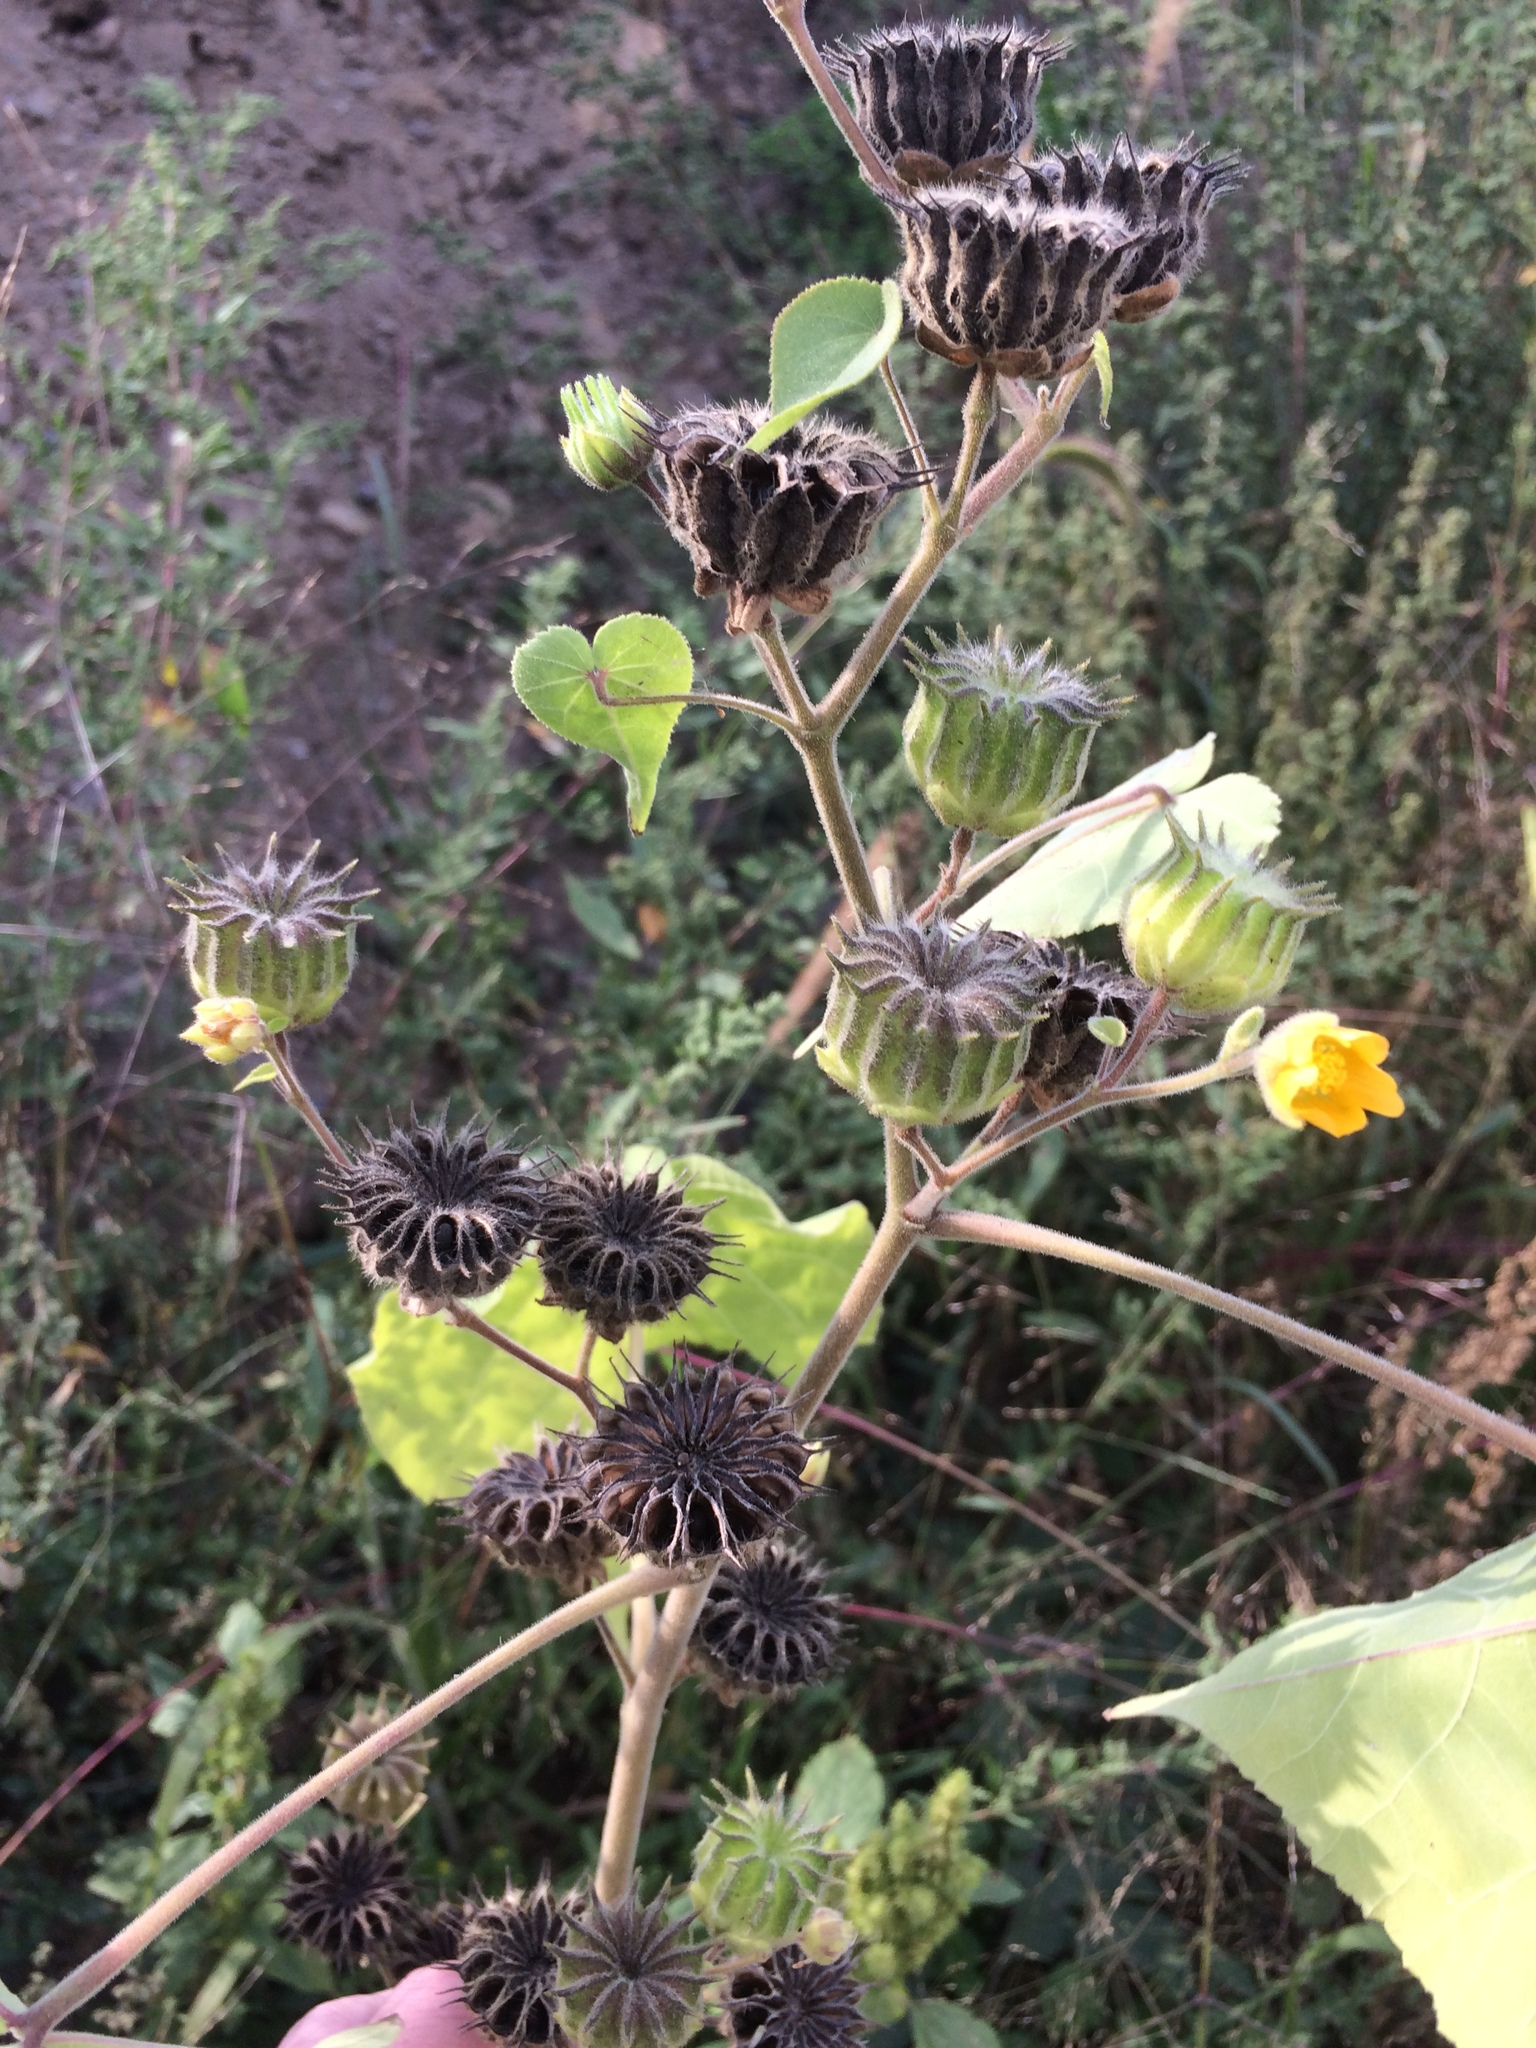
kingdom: Plantae
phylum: Tracheophyta
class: Magnoliopsida
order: Malvales
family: Malvaceae
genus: Abutilon
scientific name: Abutilon theophrasti
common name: Velvetleaf
